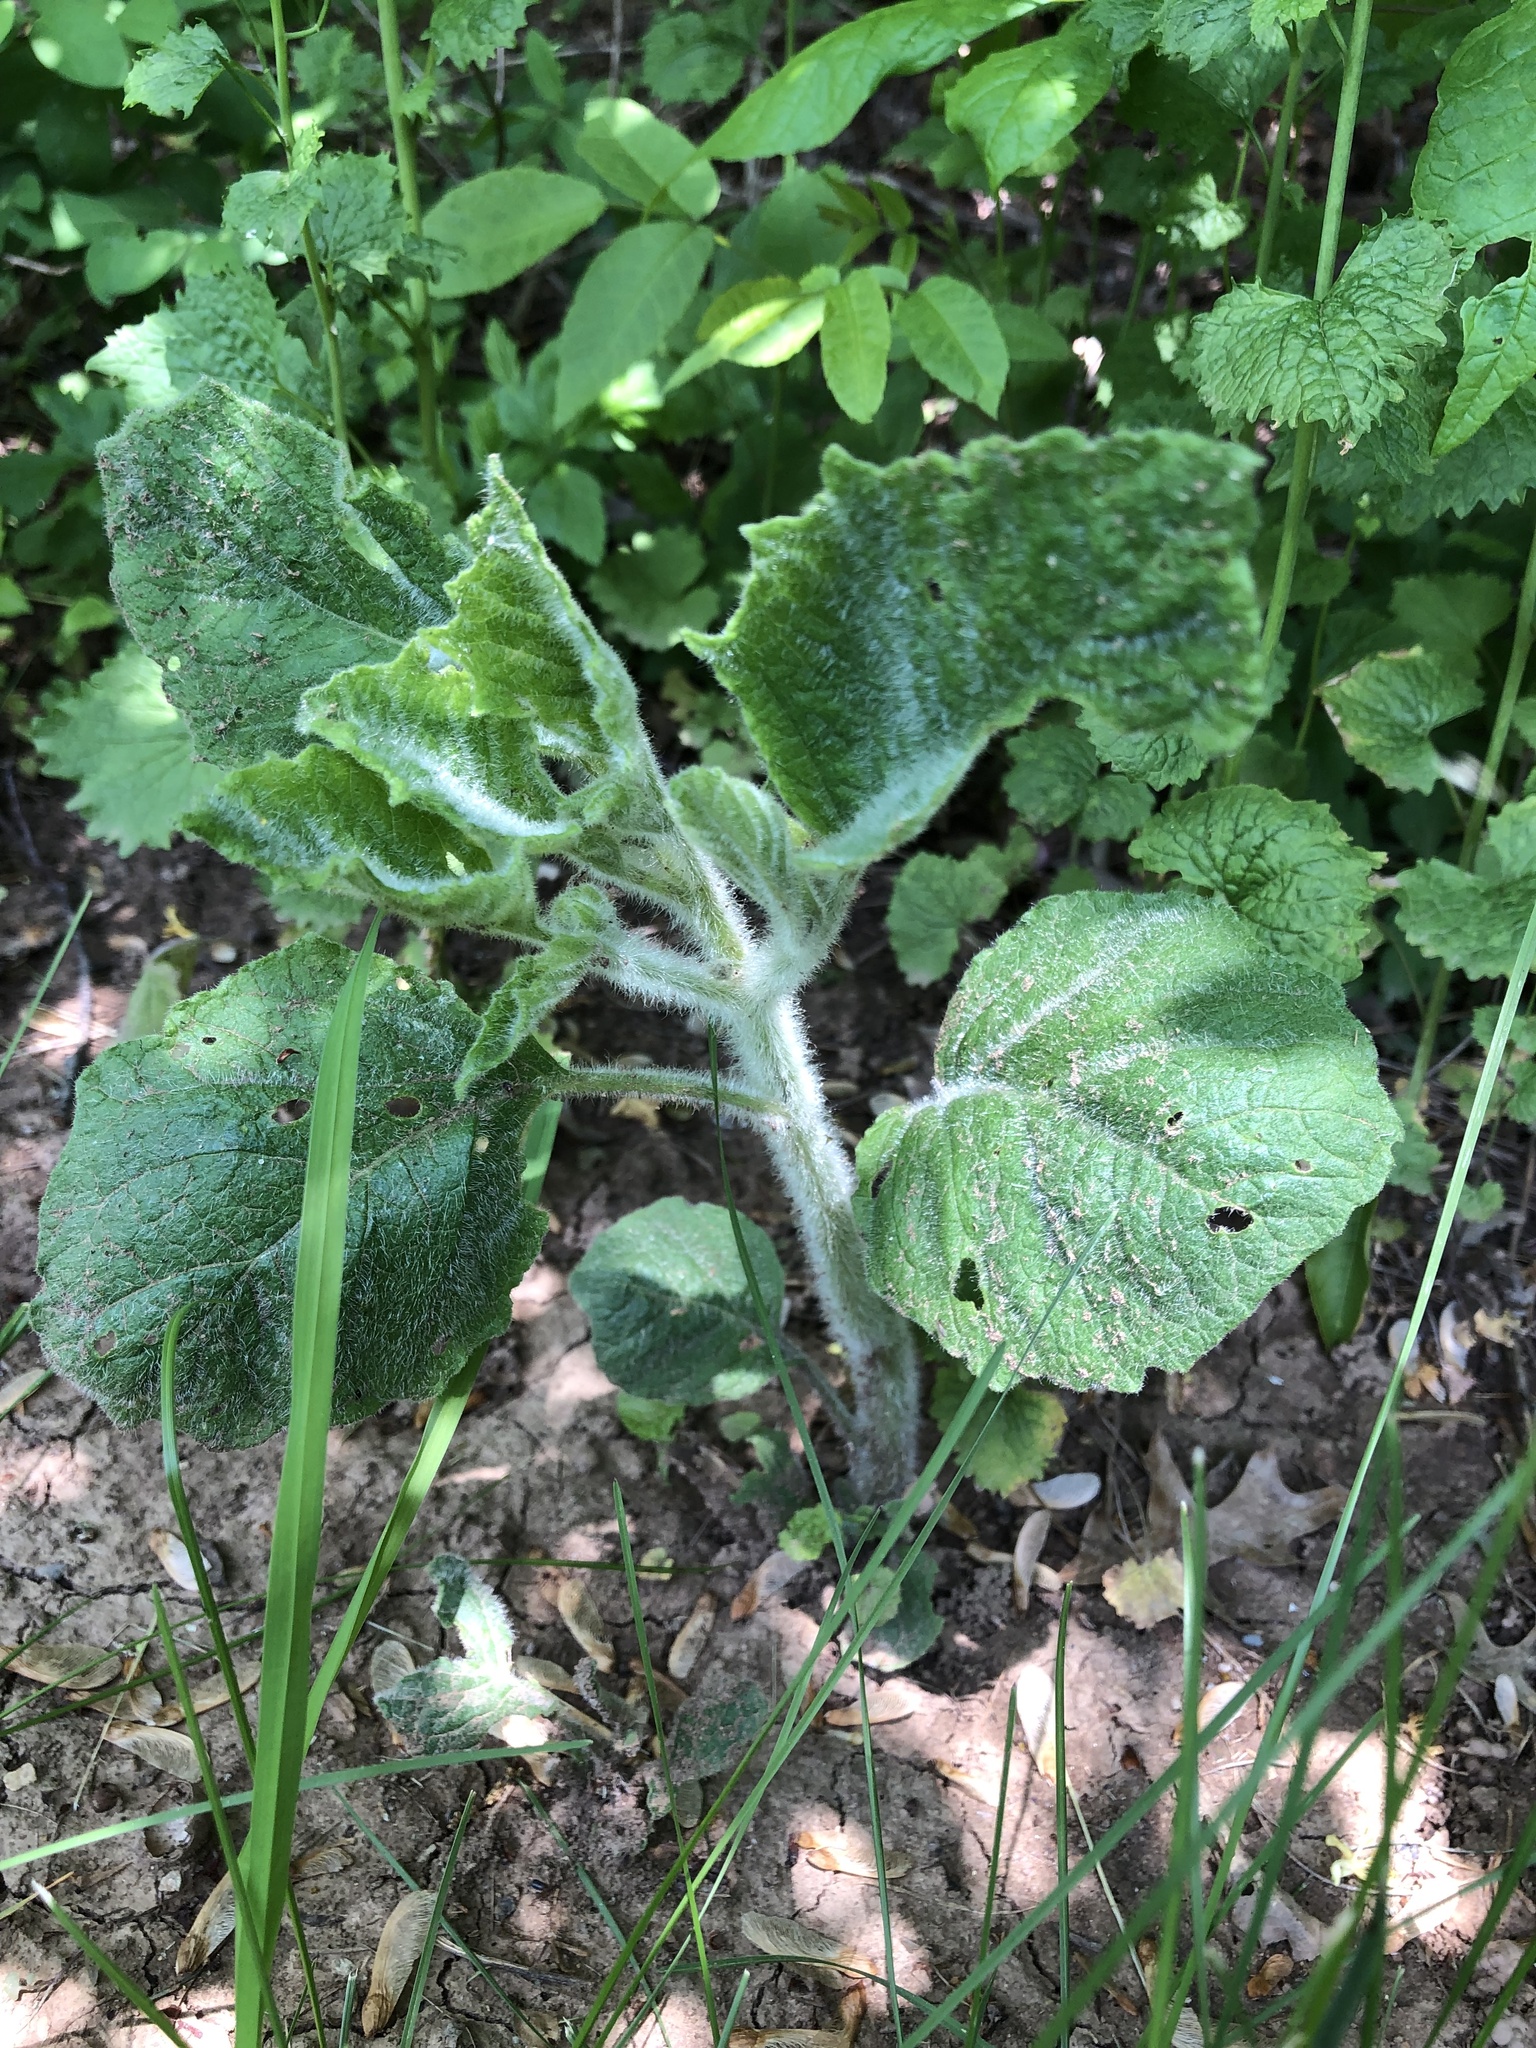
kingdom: Plantae
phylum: Tracheophyta
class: Magnoliopsida
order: Solanales
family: Solanaceae
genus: Physalis
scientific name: Physalis heterophylla
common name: Clammy ground-cherry
